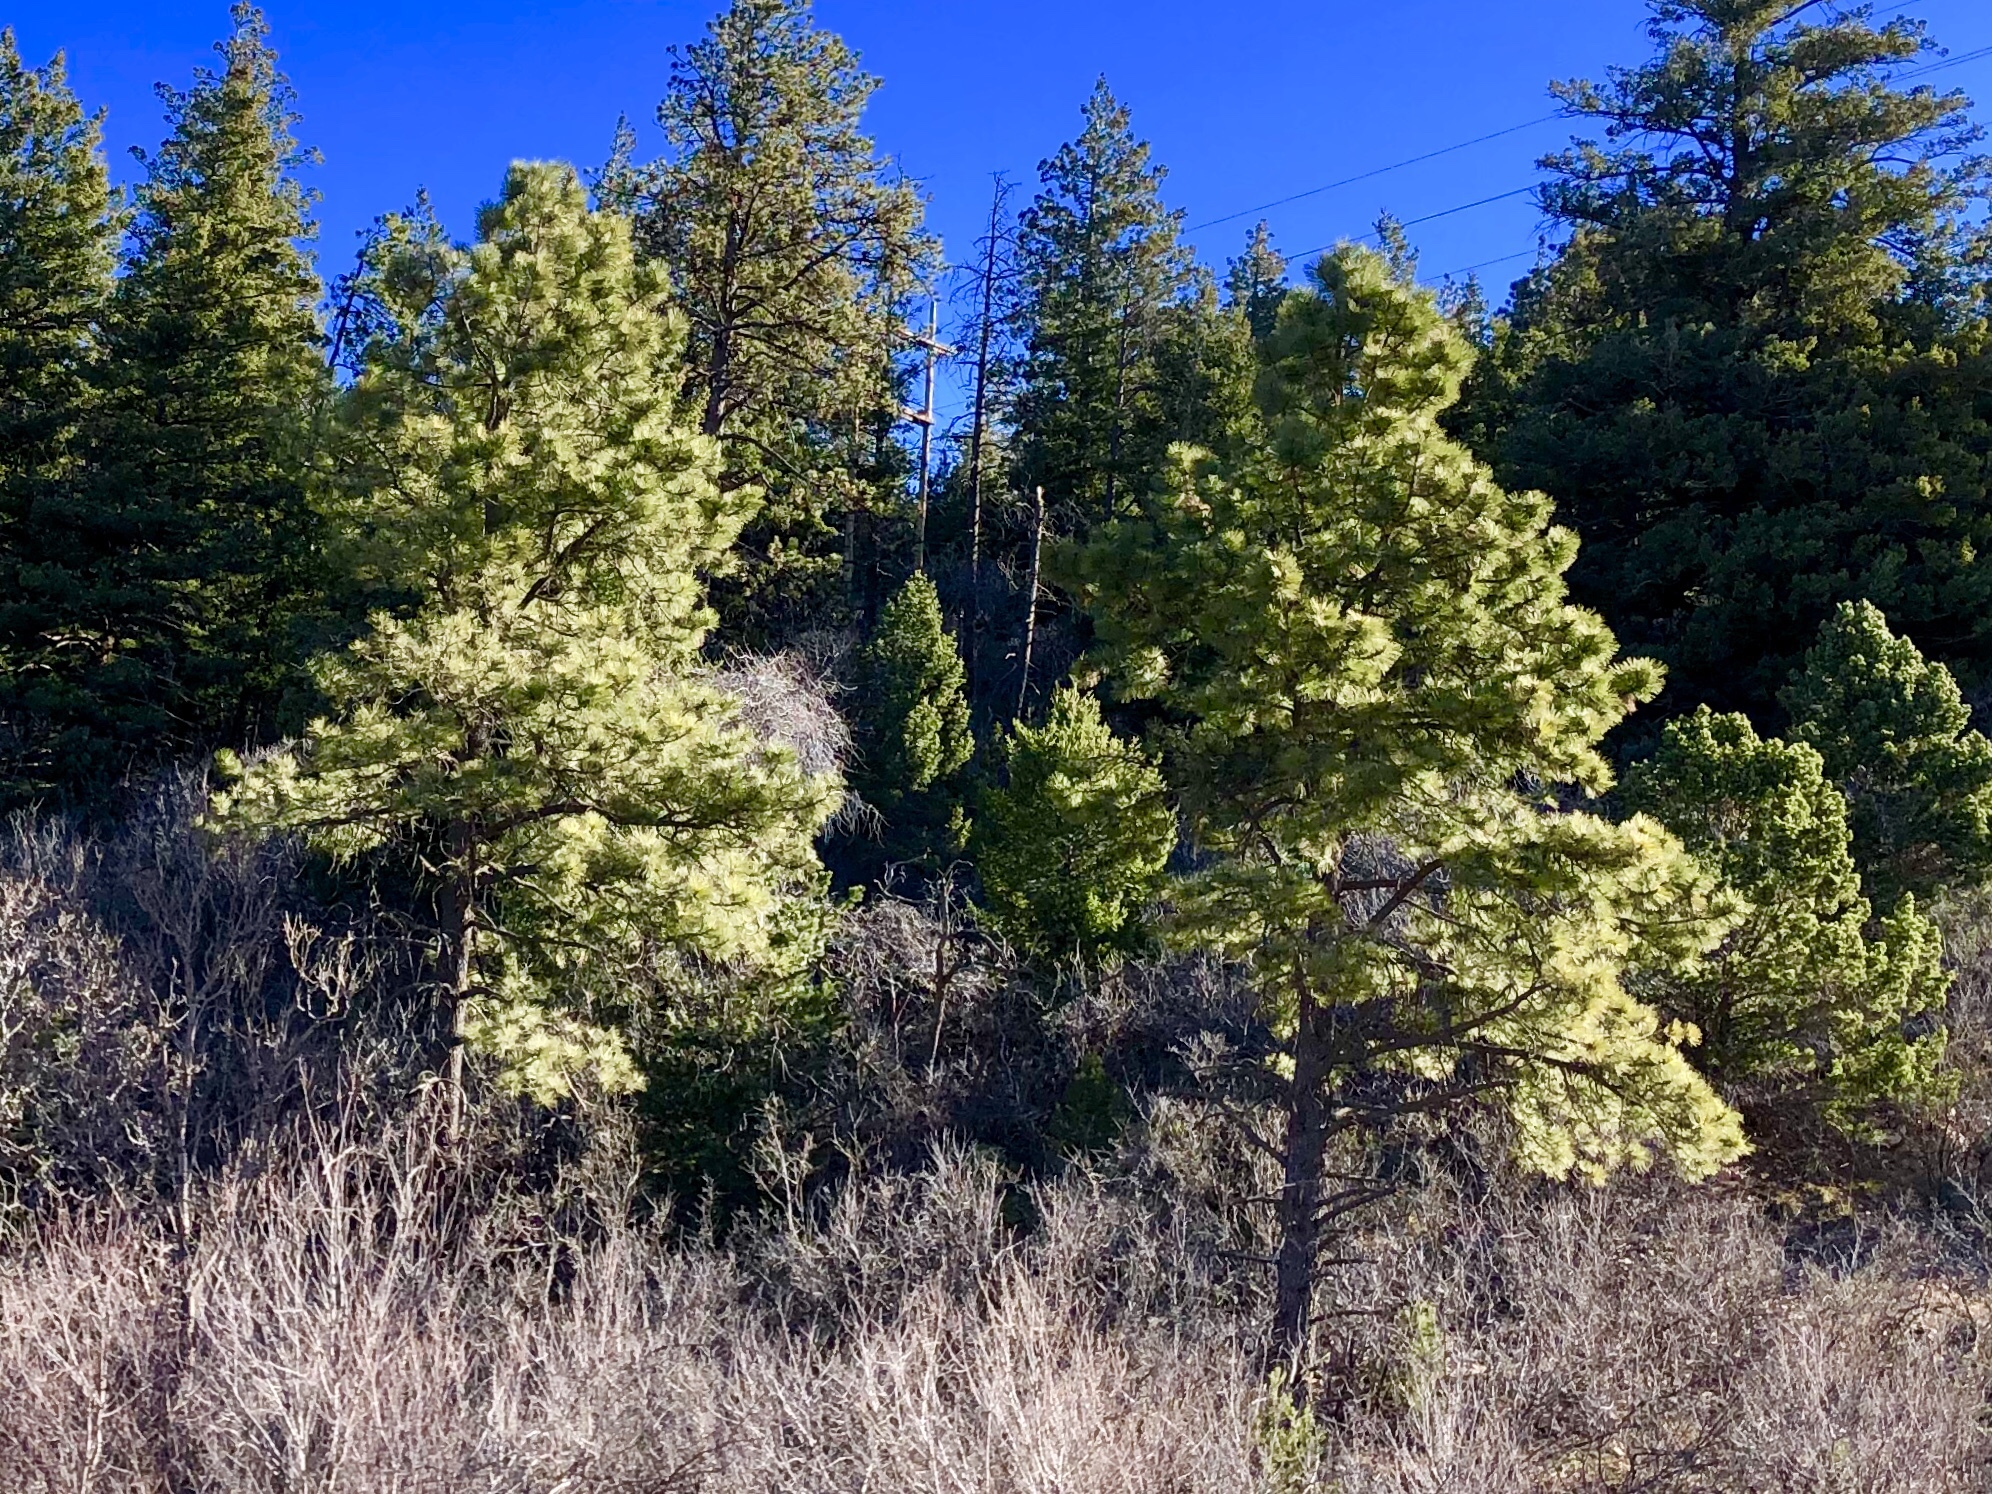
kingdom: Plantae
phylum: Tracheophyta
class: Pinopsida
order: Pinales
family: Pinaceae
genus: Pinus
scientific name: Pinus ponderosa
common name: Western yellow-pine
